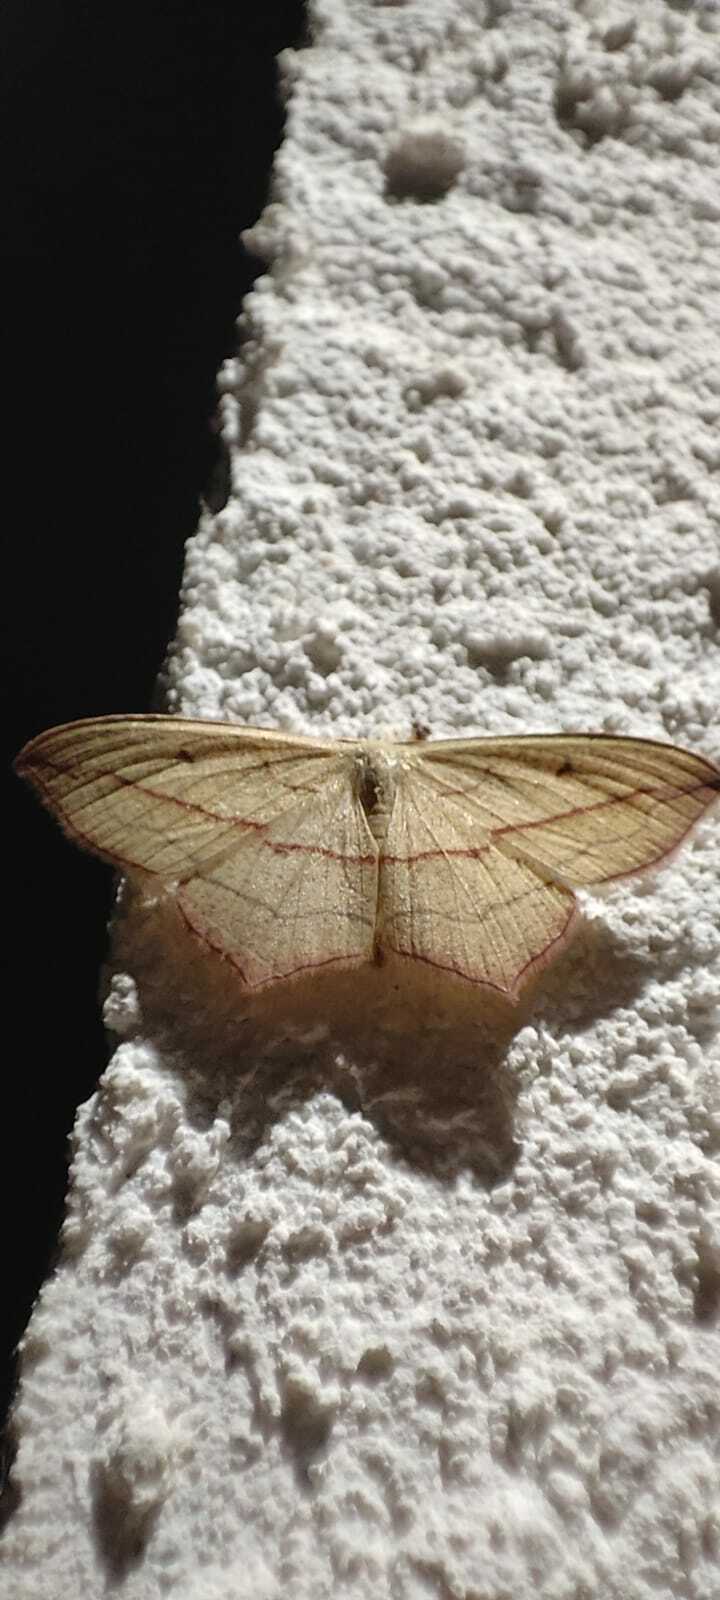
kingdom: Animalia
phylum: Arthropoda
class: Insecta
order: Lepidoptera
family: Geometridae
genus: Timandra
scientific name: Timandra comae
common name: Blood-vein
